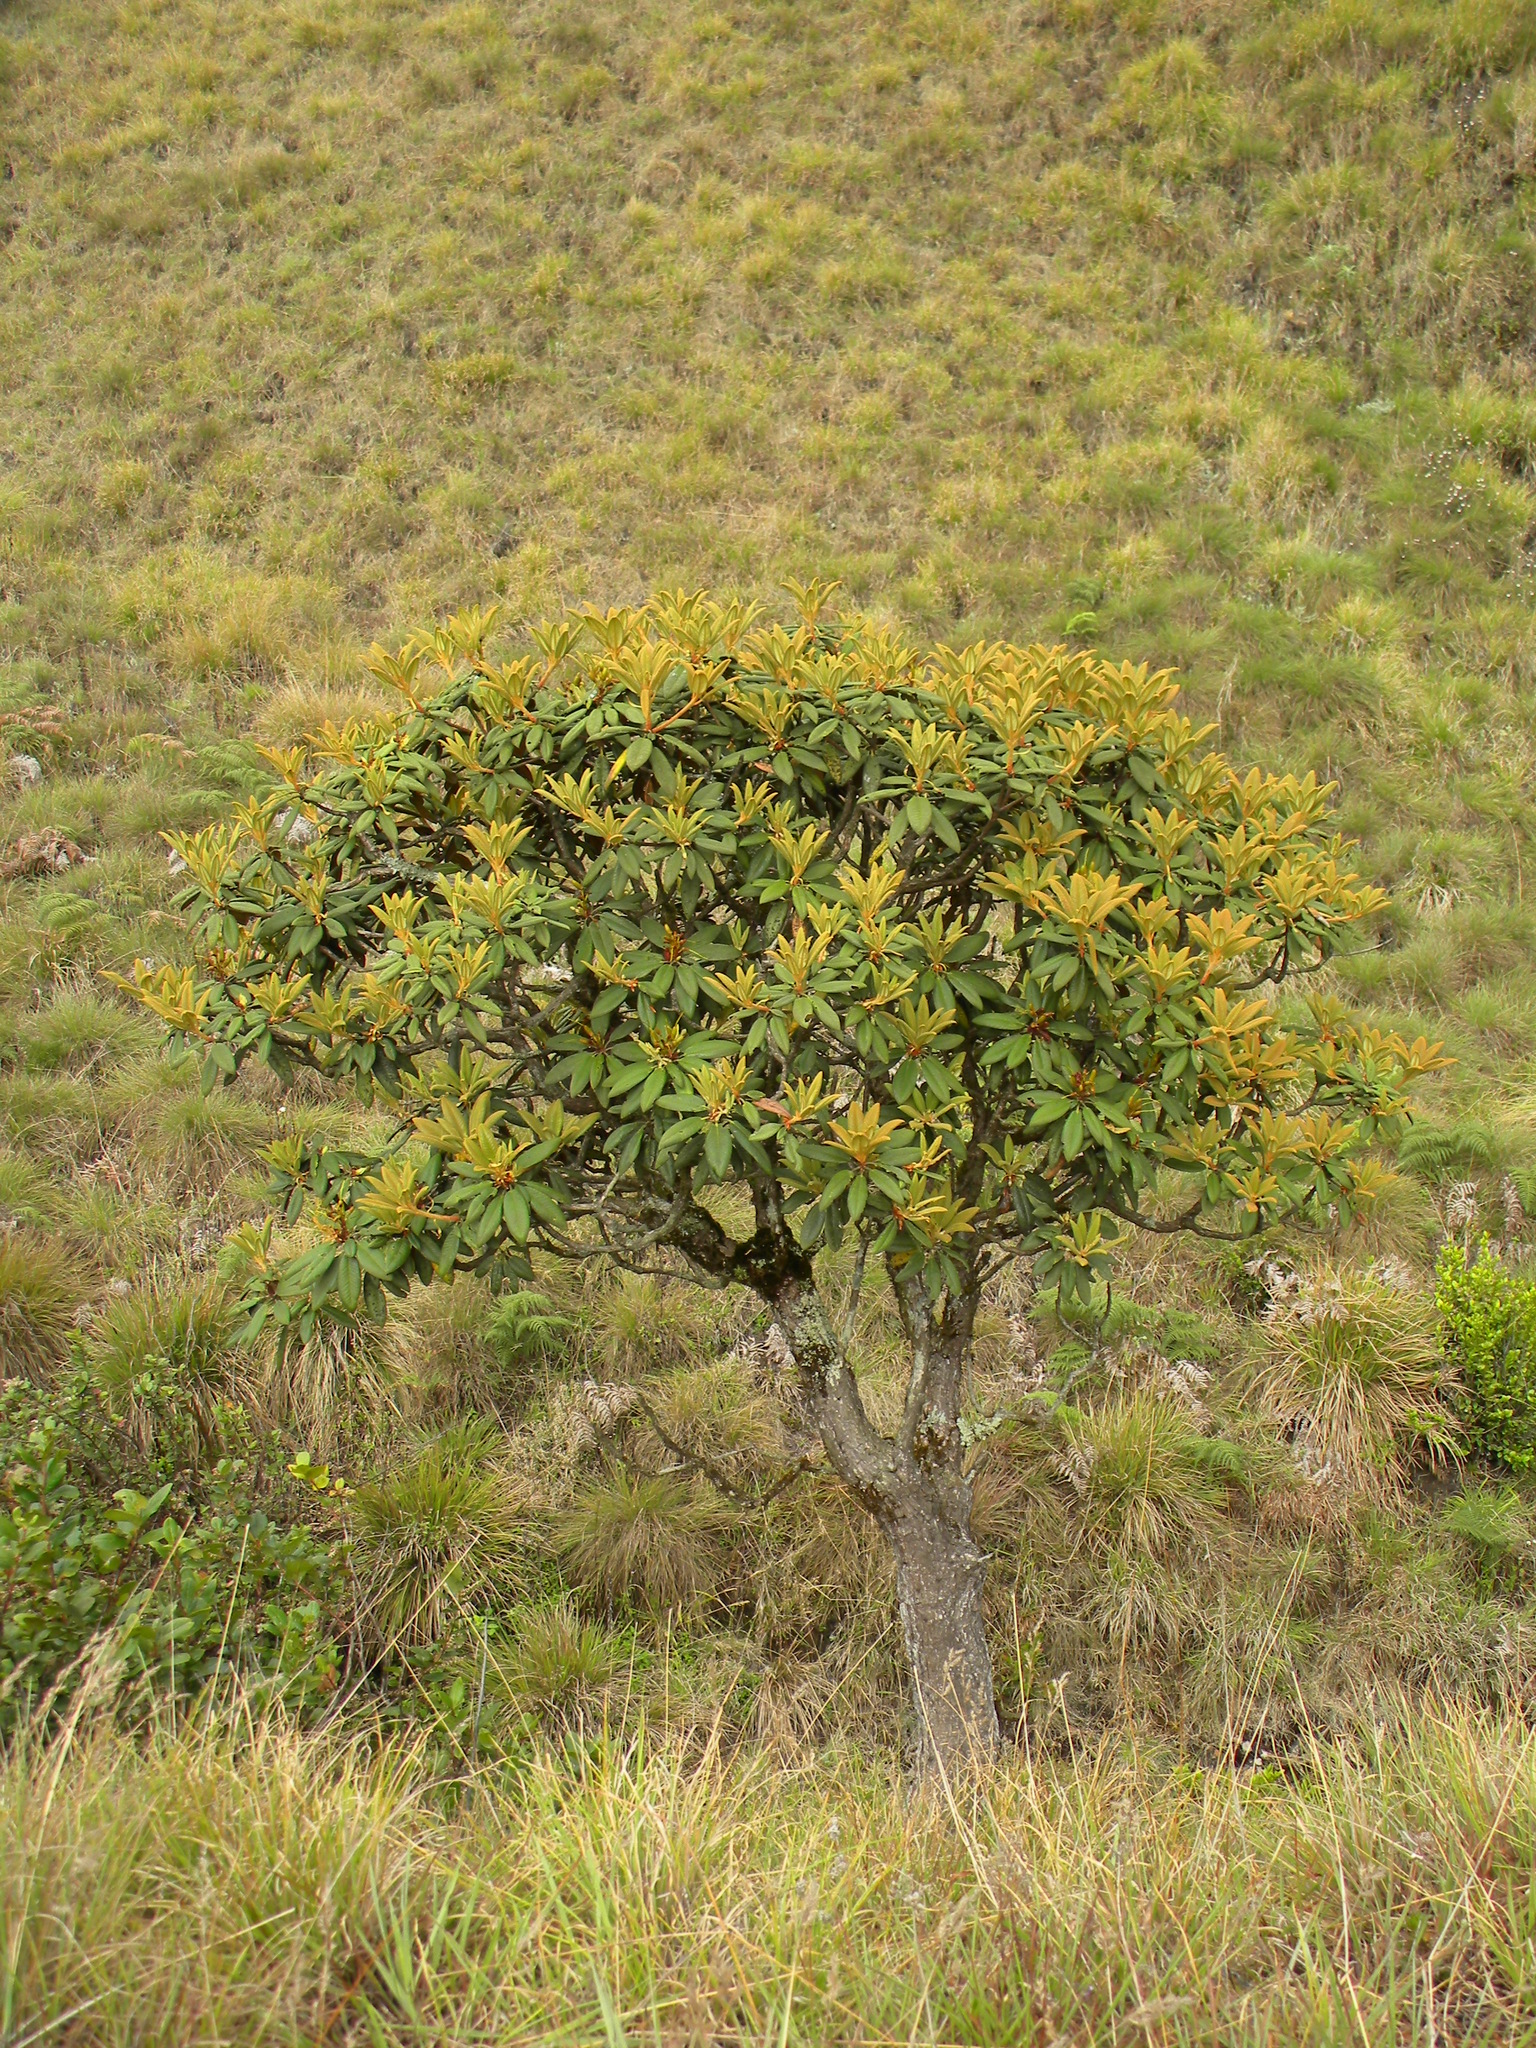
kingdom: Plantae
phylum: Tracheophyta
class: Magnoliopsida
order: Ericales
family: Ericaceae
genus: Rhododendron
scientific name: Rhododendron arboreum
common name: Tree rhododendron
